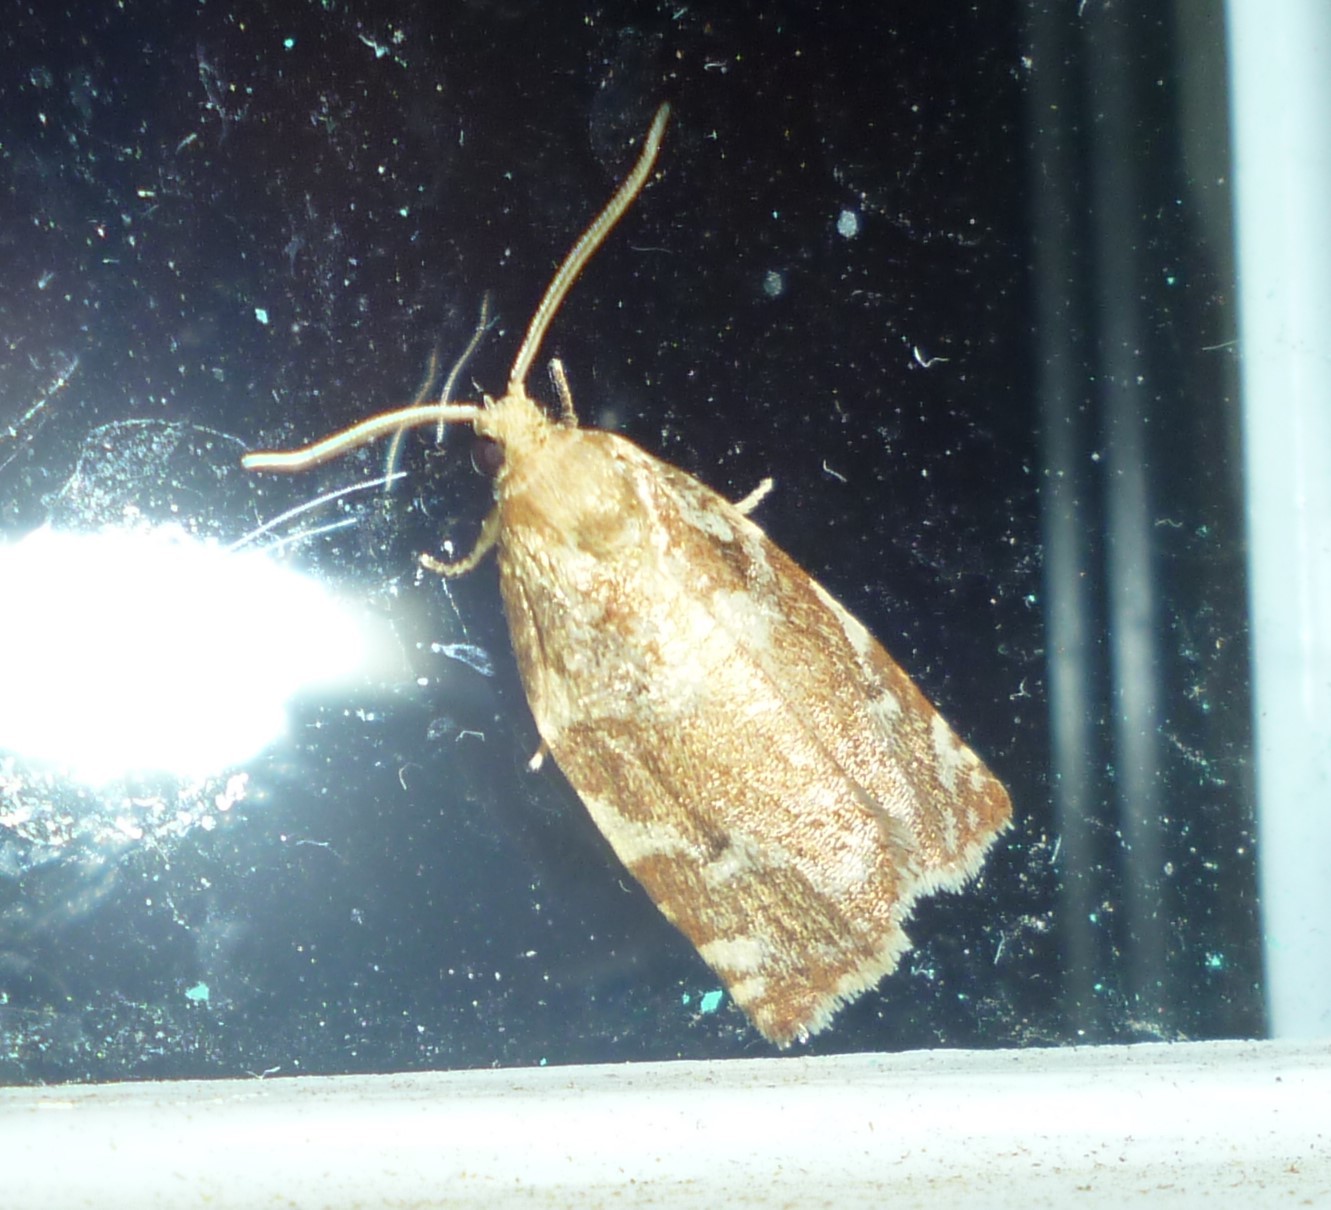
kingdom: Animalia
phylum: Arthropoda
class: Insecta
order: Lepidoptera
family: Tortricidae
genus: Archips
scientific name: Archips semiferanus
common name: Oak leafroller
